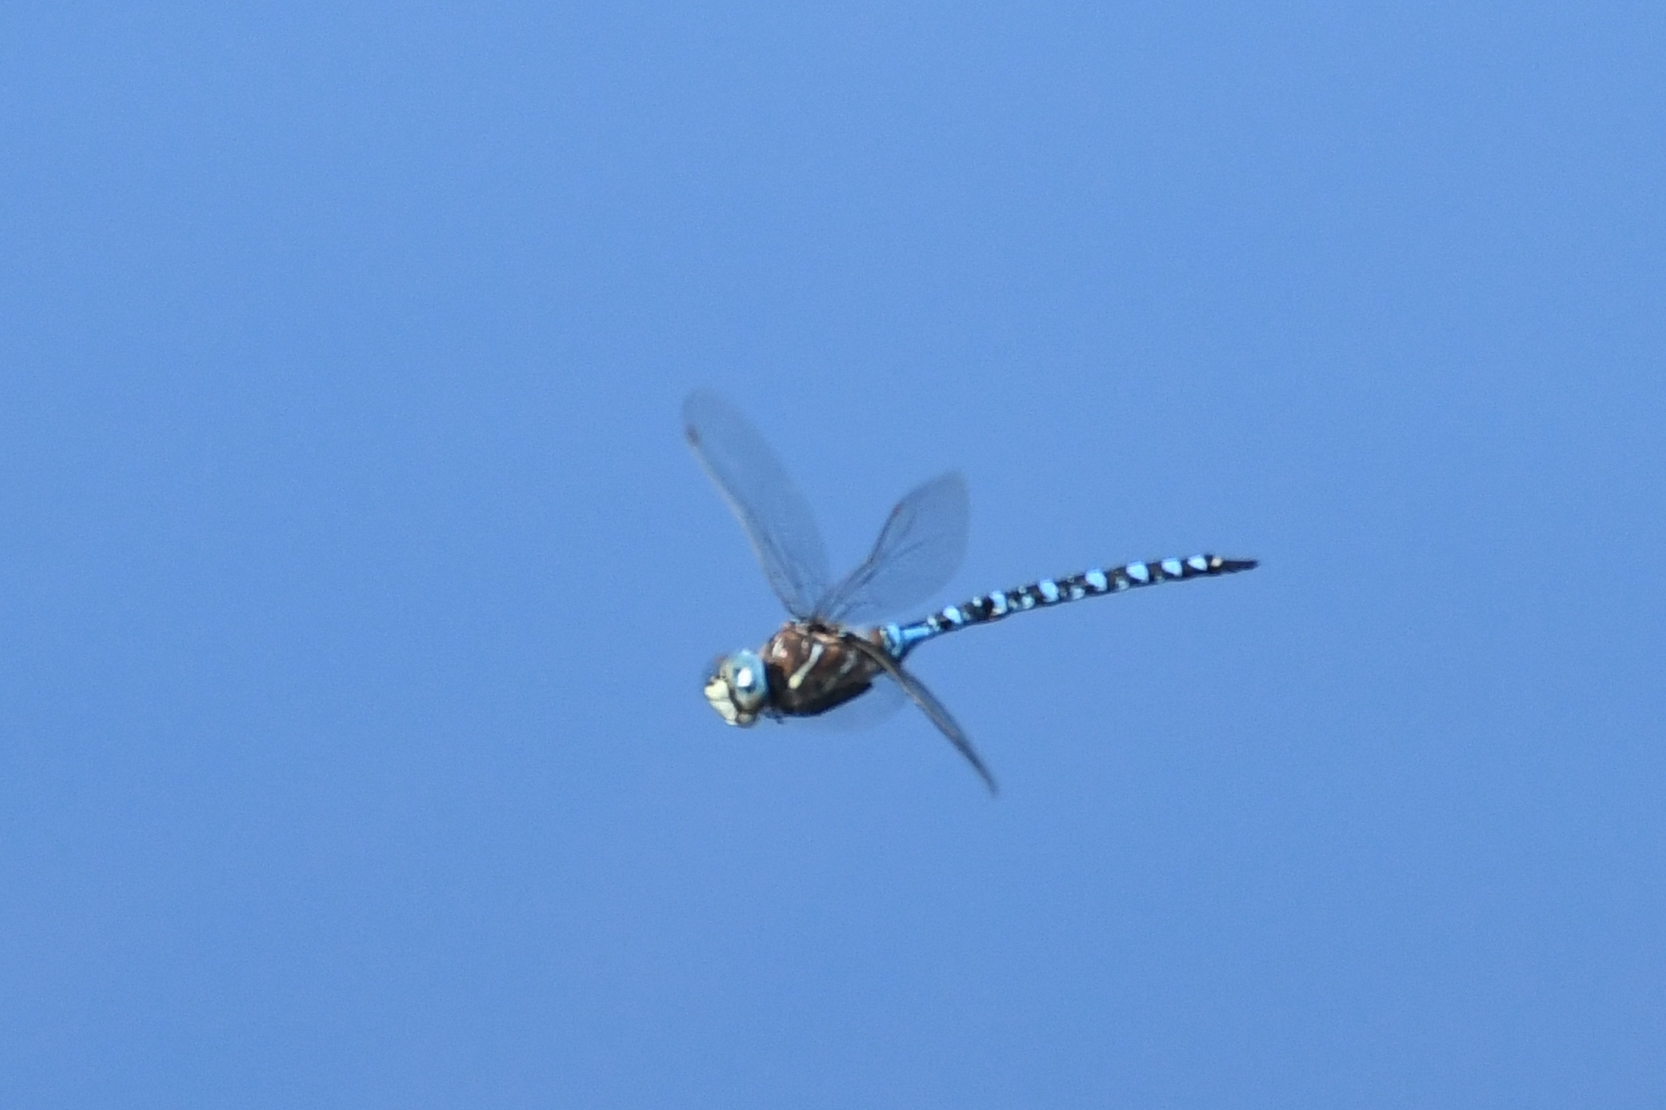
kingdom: Animalia
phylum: Arthropoda
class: Insecta
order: Odonata
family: Aeshnidae
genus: Aeshna
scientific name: Aeshna interrupta
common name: Variable darner
